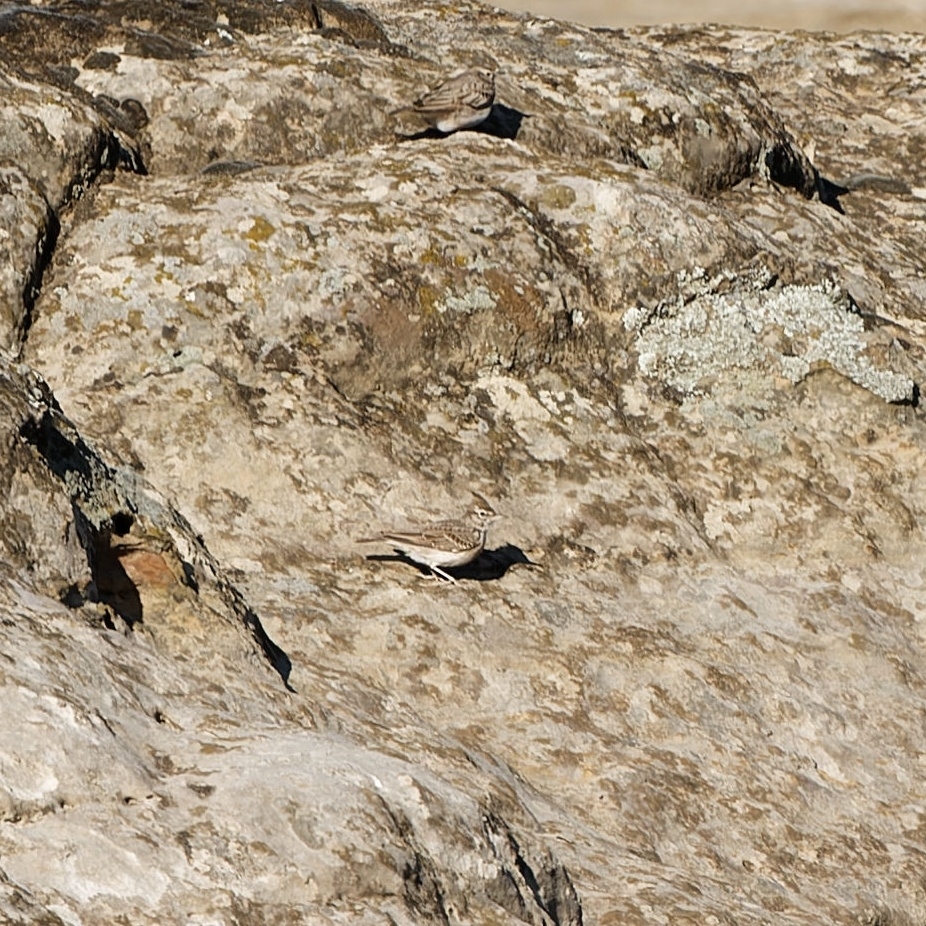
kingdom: Animalia
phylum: Chordata
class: Aves
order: Passeriformes
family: Alaudidae
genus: Galerida
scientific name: Galerida cristata
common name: Crested lark
